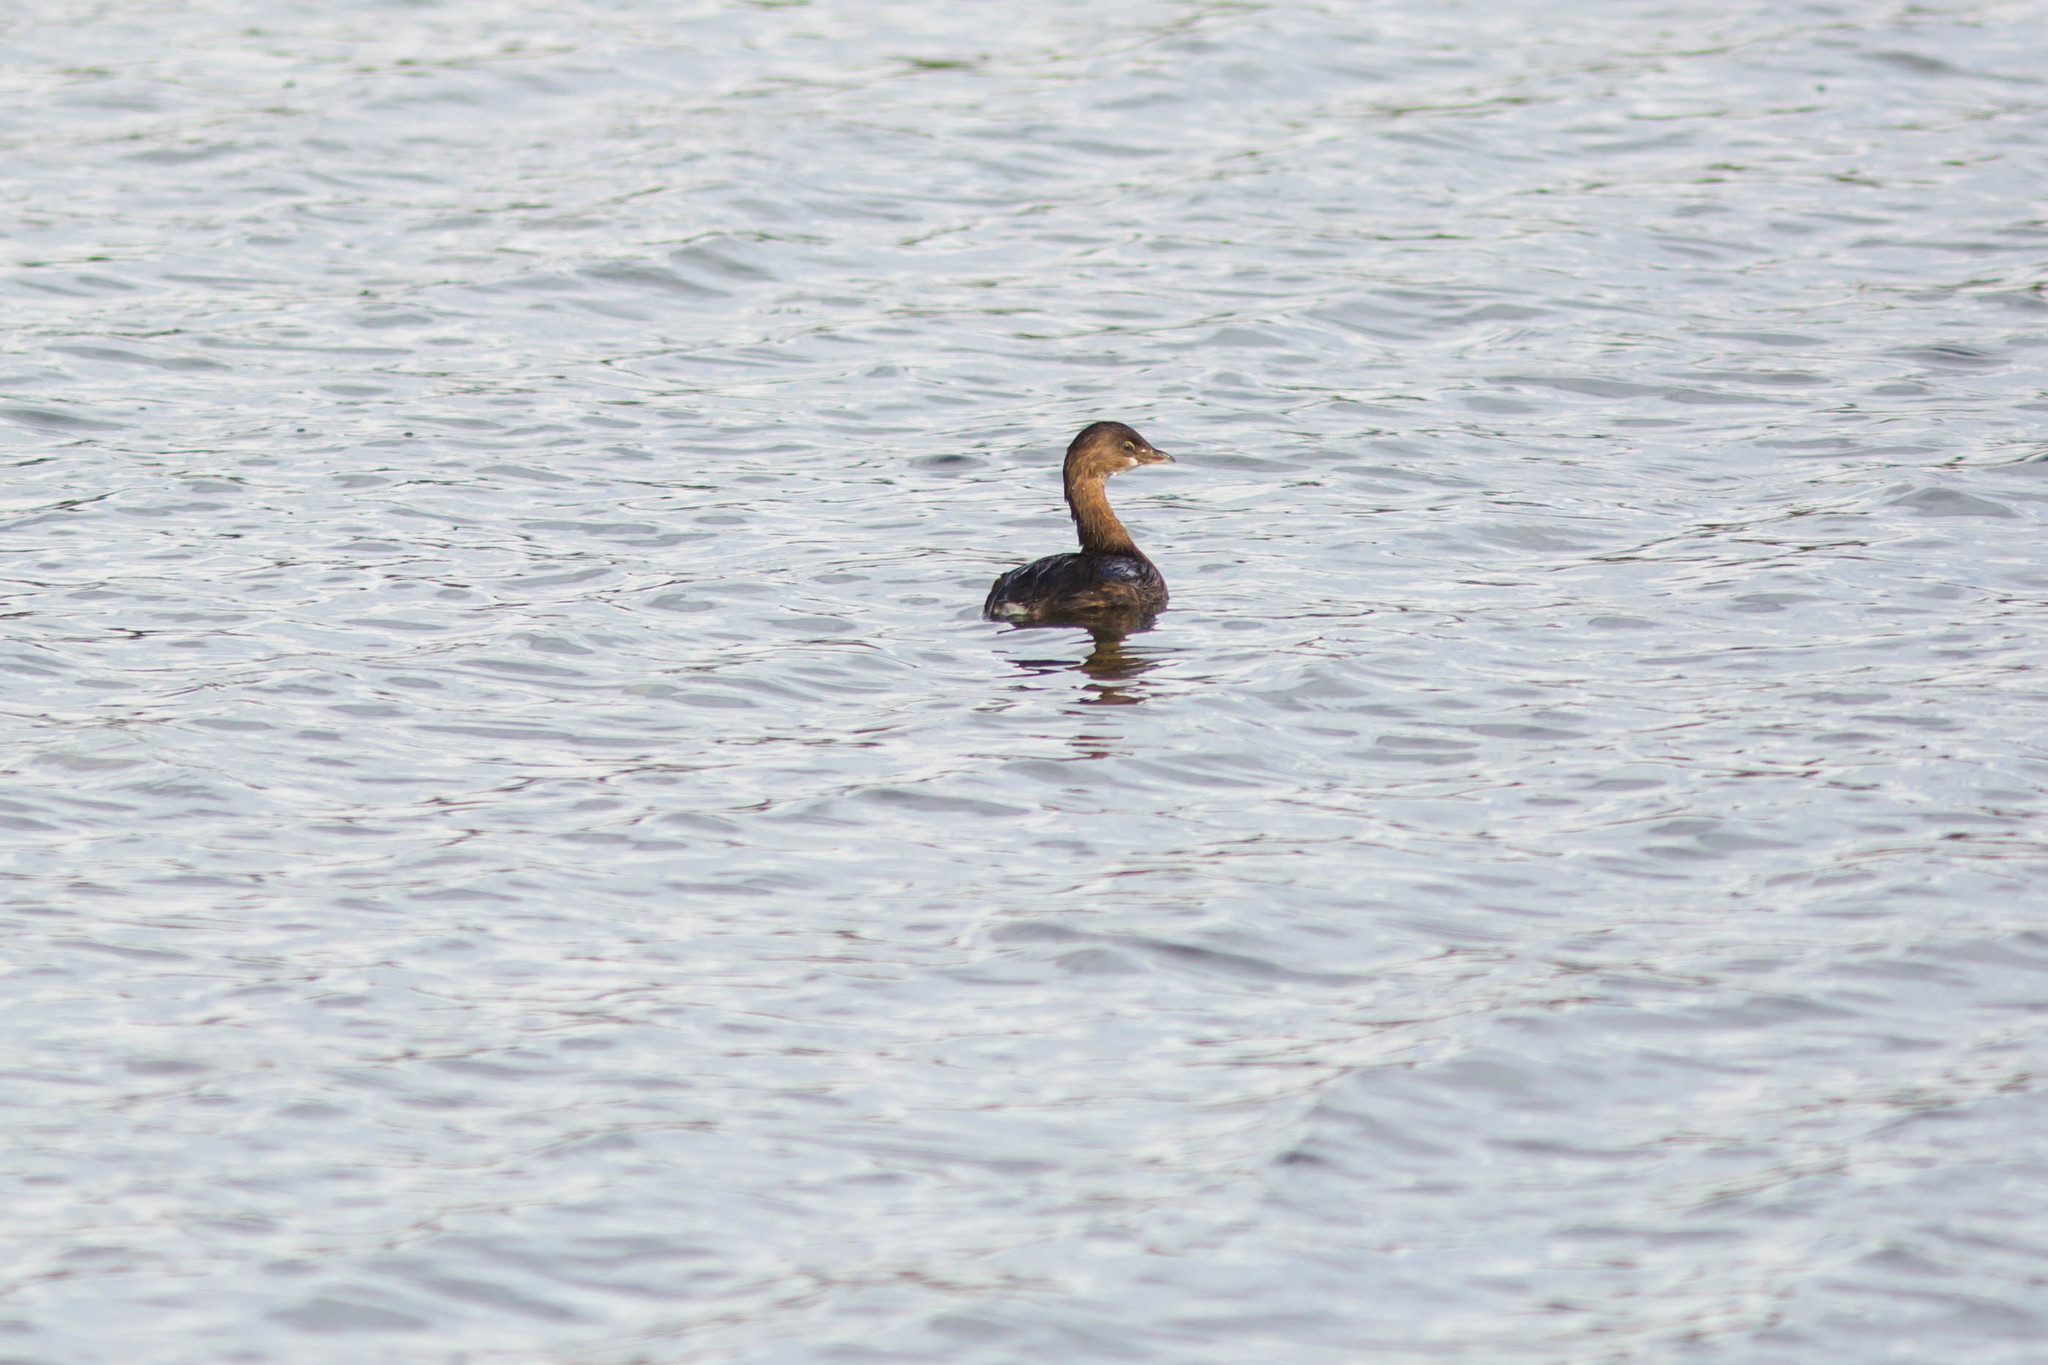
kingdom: Animalia
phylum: Chordata
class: Aves
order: Podicipediformes
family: Podicipedidae
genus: Podilymbus
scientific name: Podilymbus podiceps
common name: Pied-billed grebe
